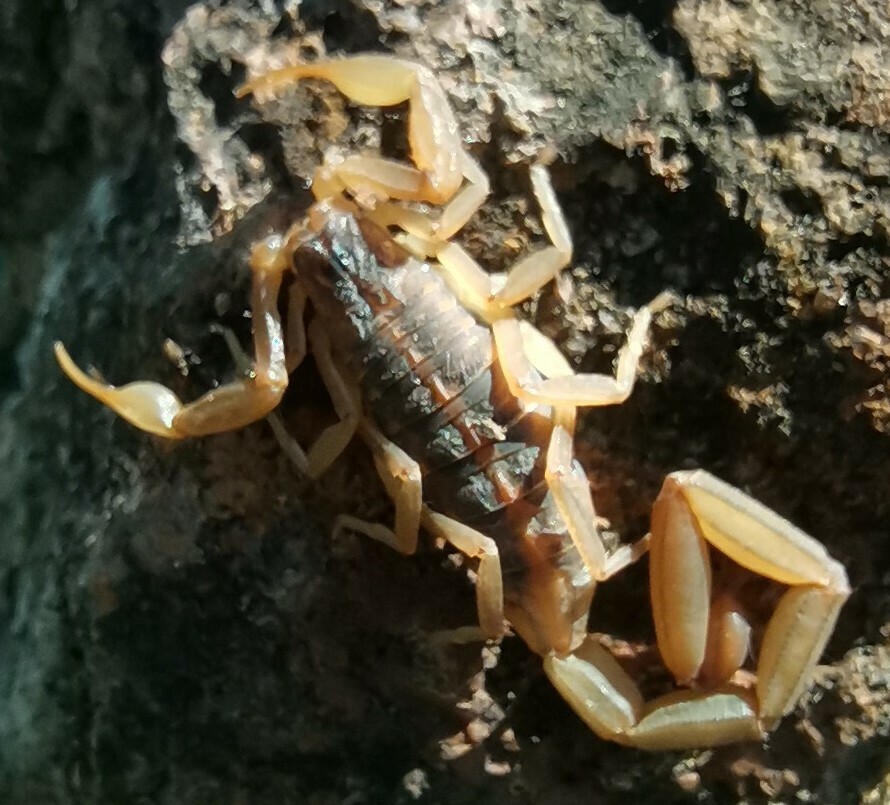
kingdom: Animalia
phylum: Arthropoda
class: Arachnida
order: Scorpiones
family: Buthidae
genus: Centruroides
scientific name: Centruroides ornatus
